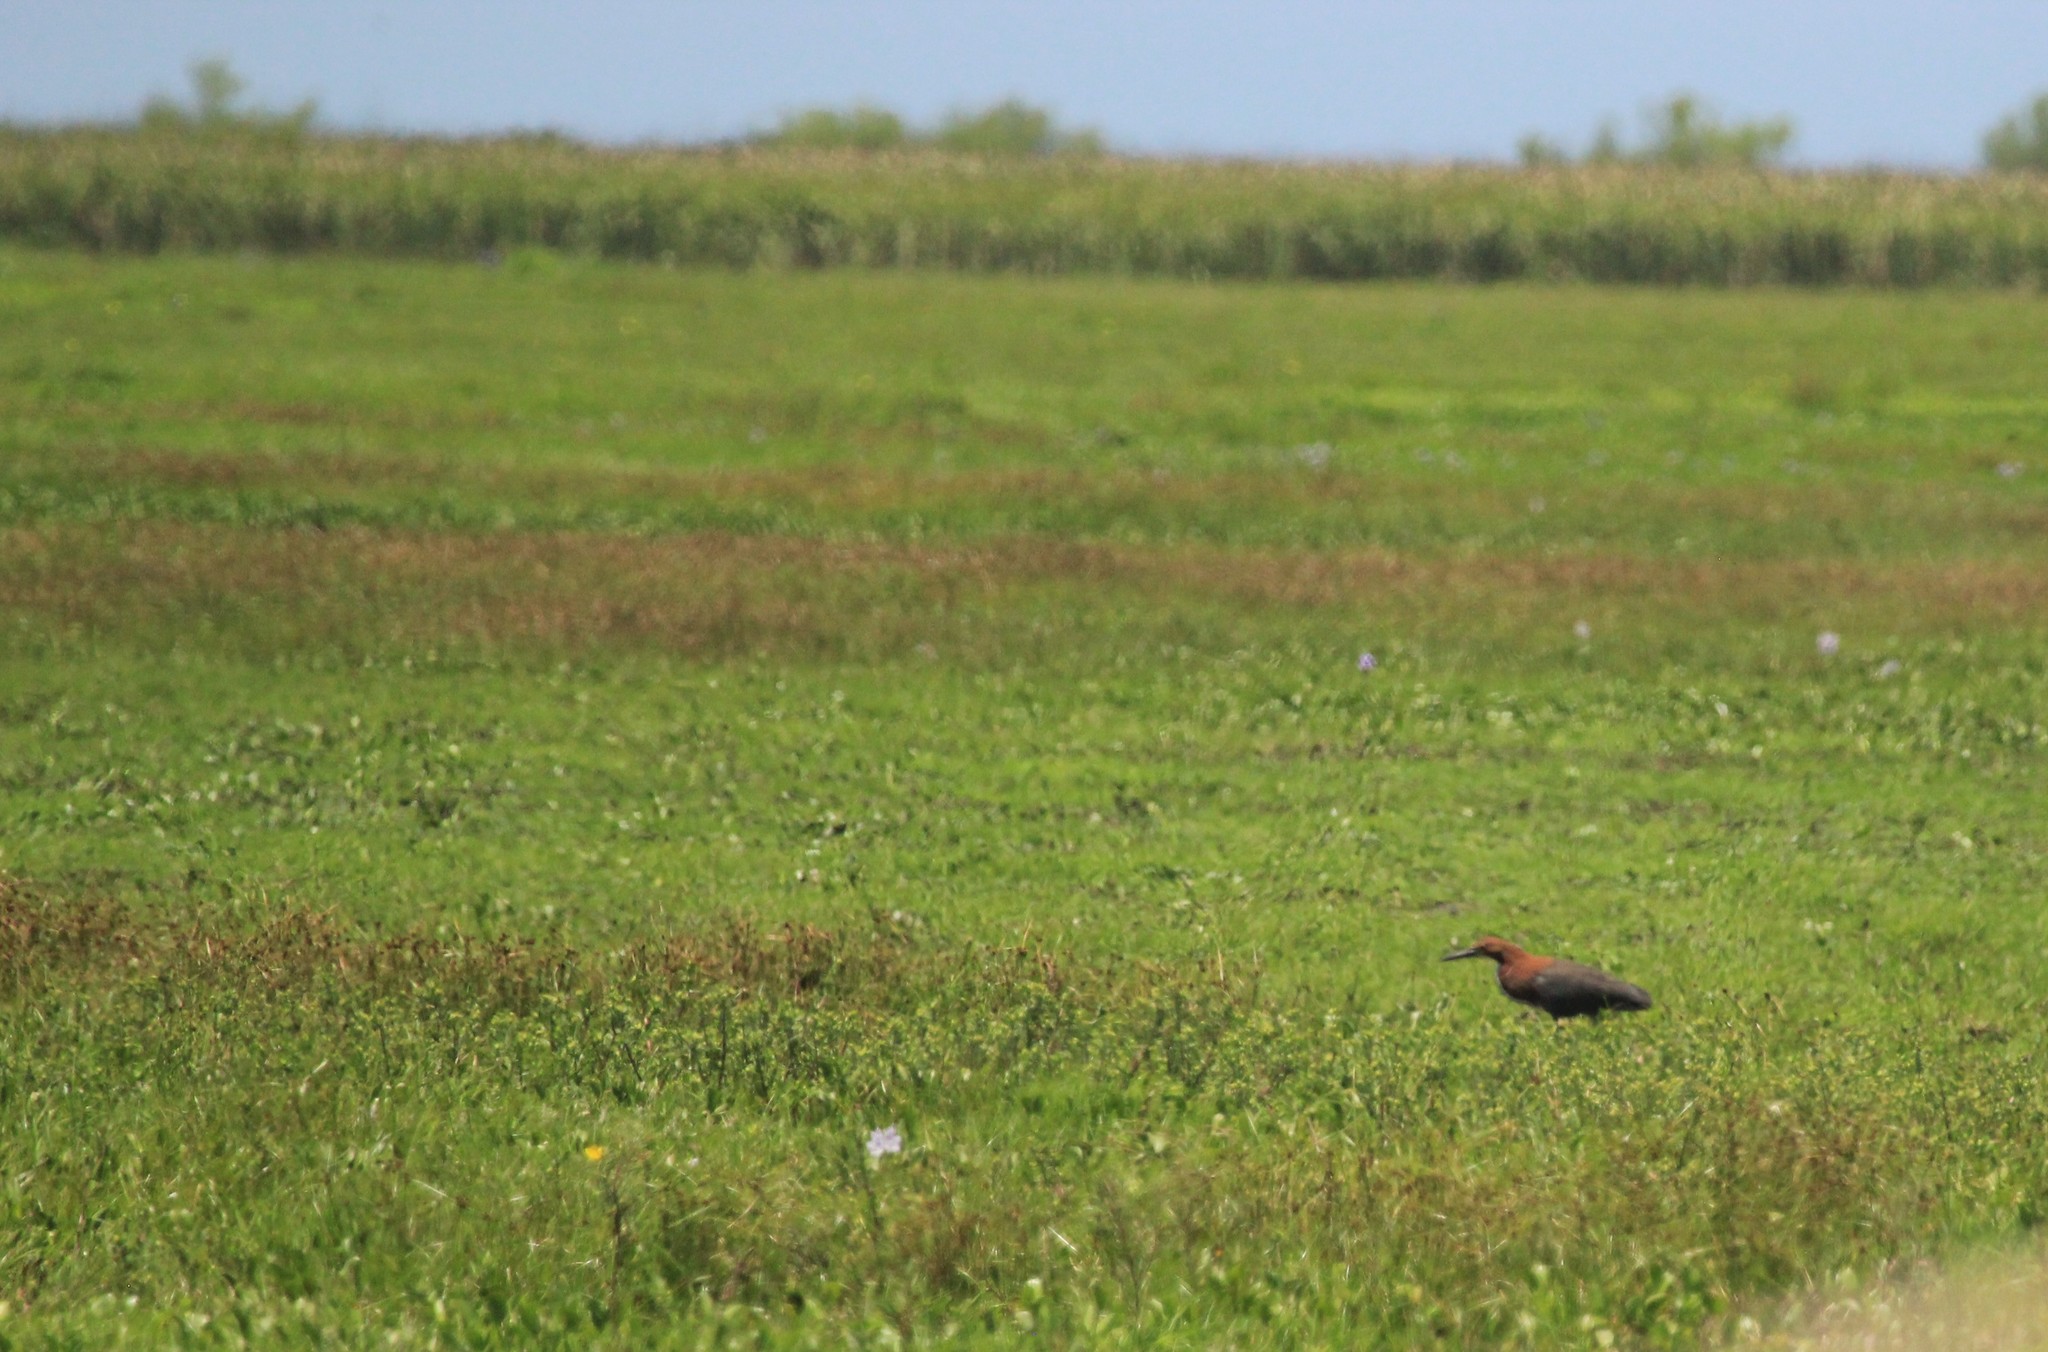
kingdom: Animalia
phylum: Chordata
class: Aves
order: Pelecaniformes
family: Ardeidae
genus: Tigrisoma
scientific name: Tigrisoma lineatum
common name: Rufescent tiger-heron
